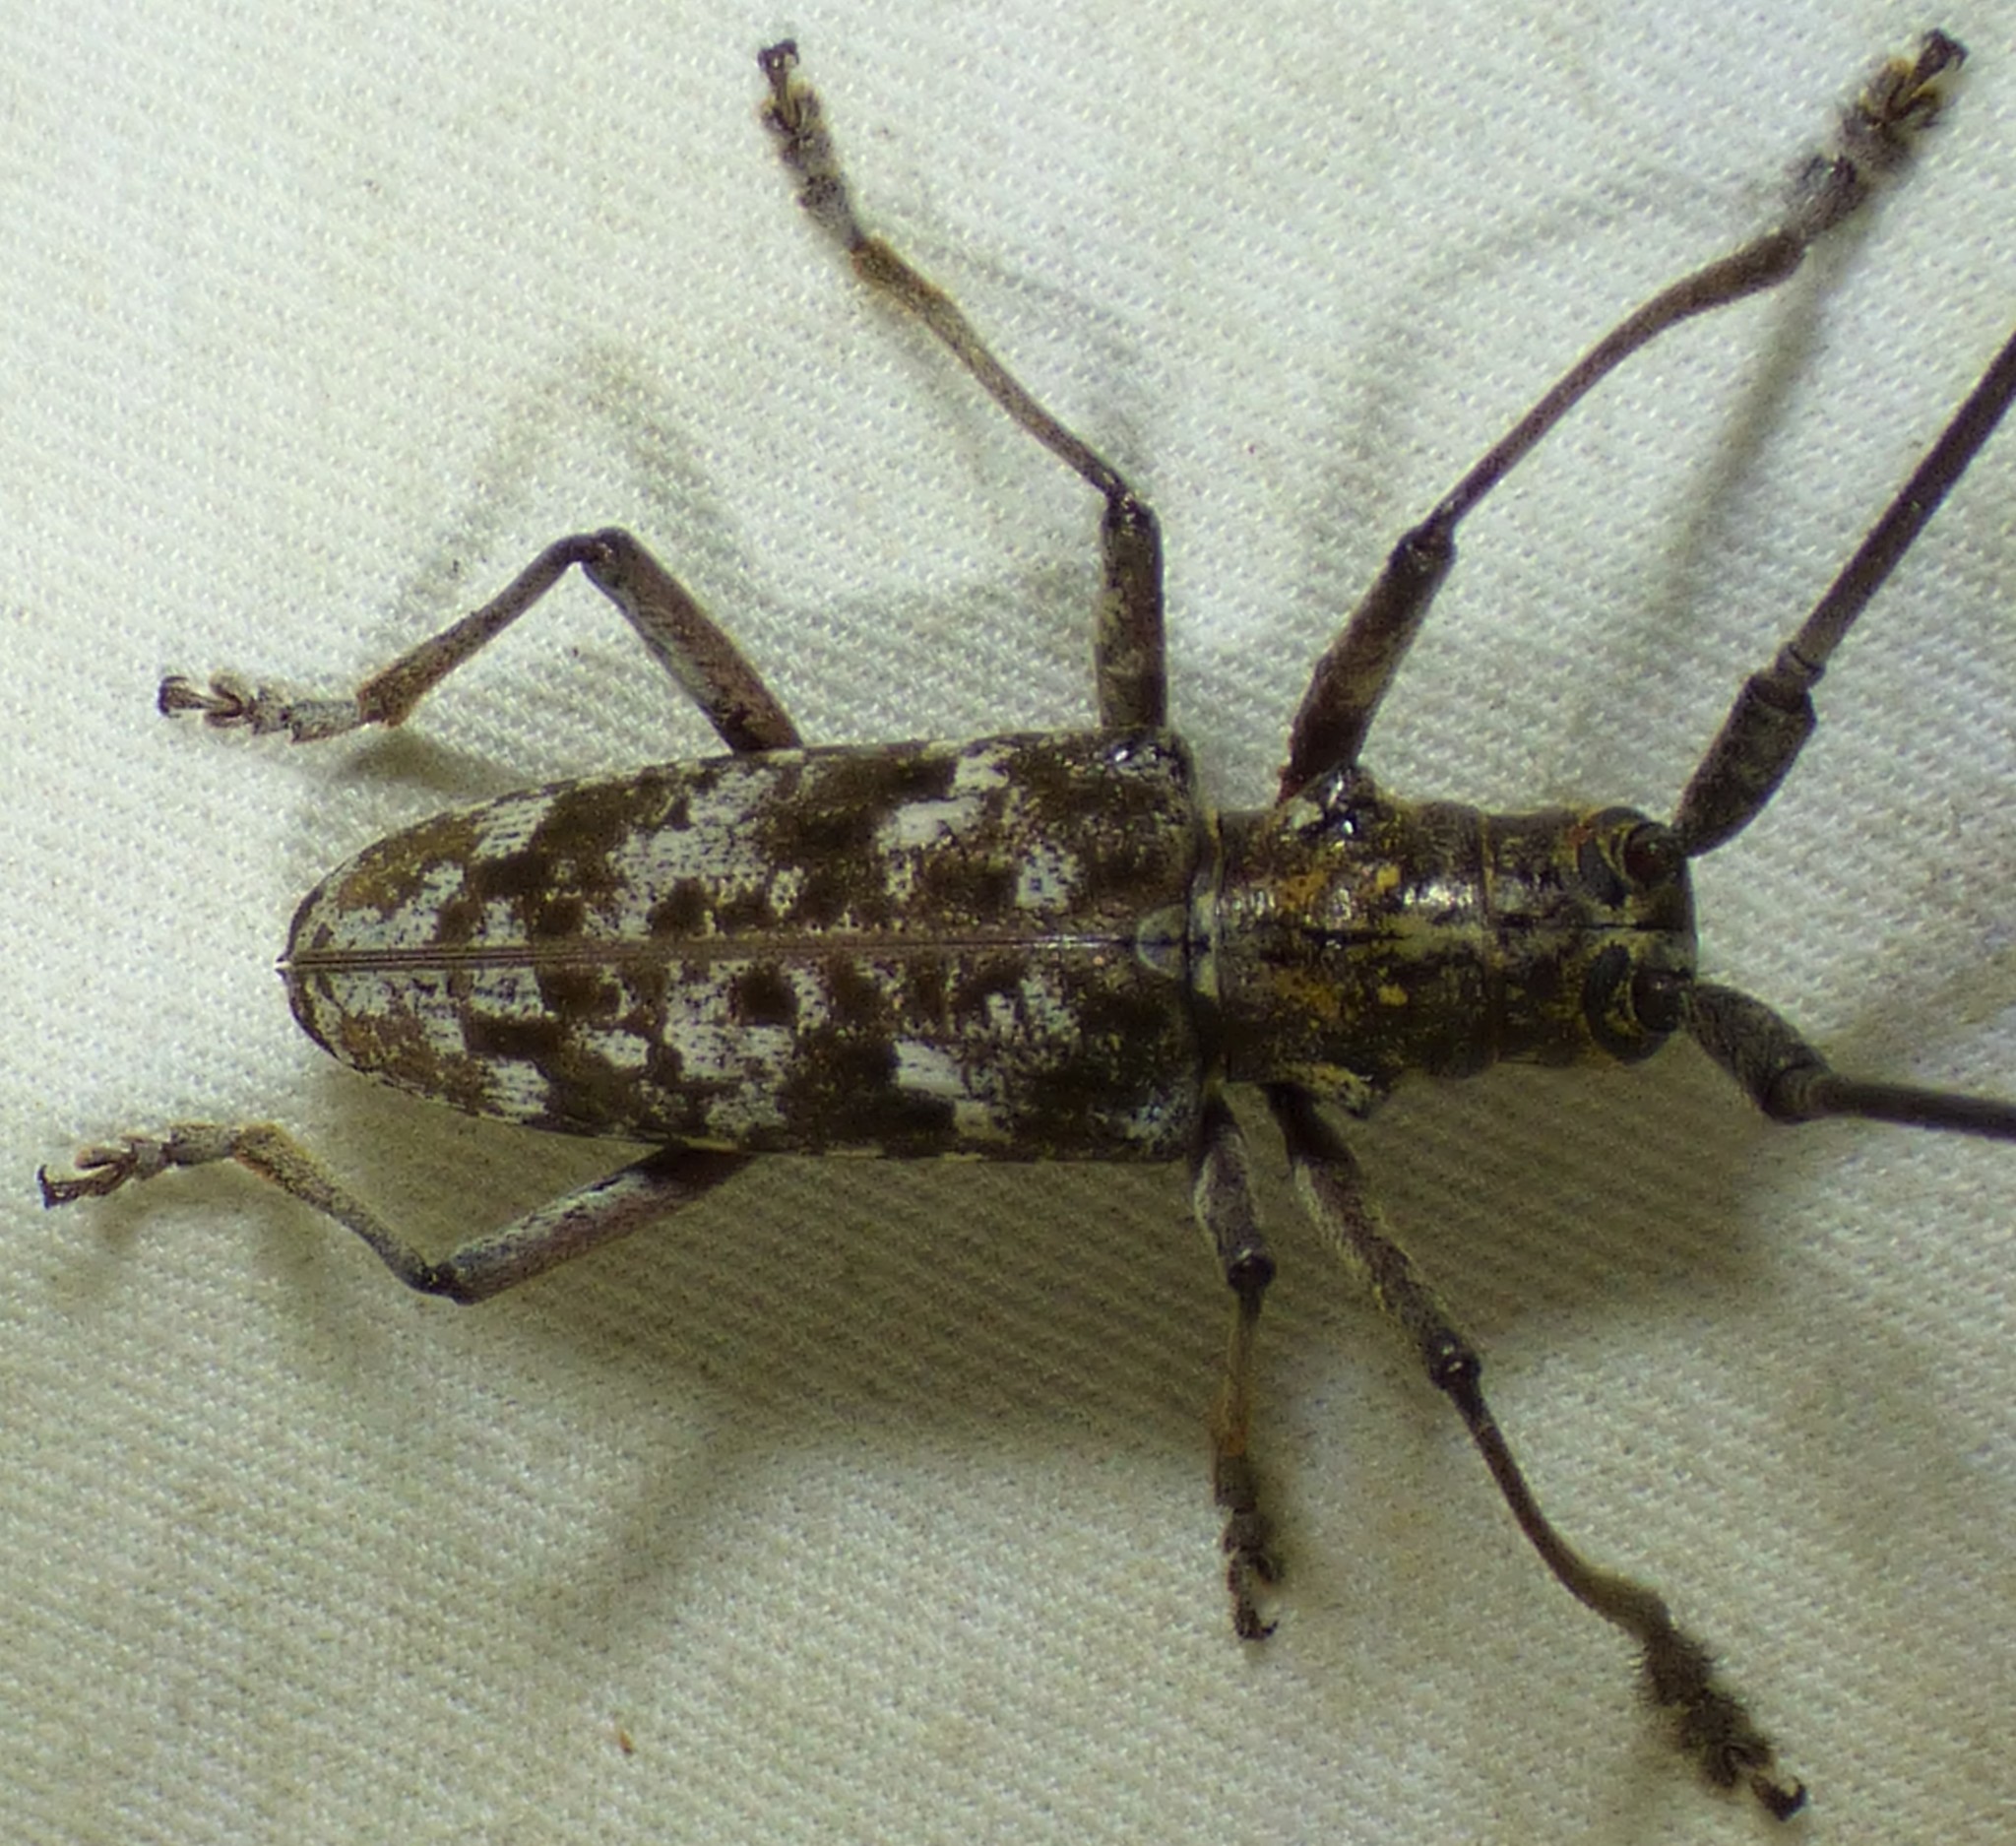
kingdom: Animalia
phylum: Arthropoda
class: Insecta
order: Coleoptera
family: Cerambycidae
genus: Monochamus
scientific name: Monochamus titillator
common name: Southern pine sawyer
